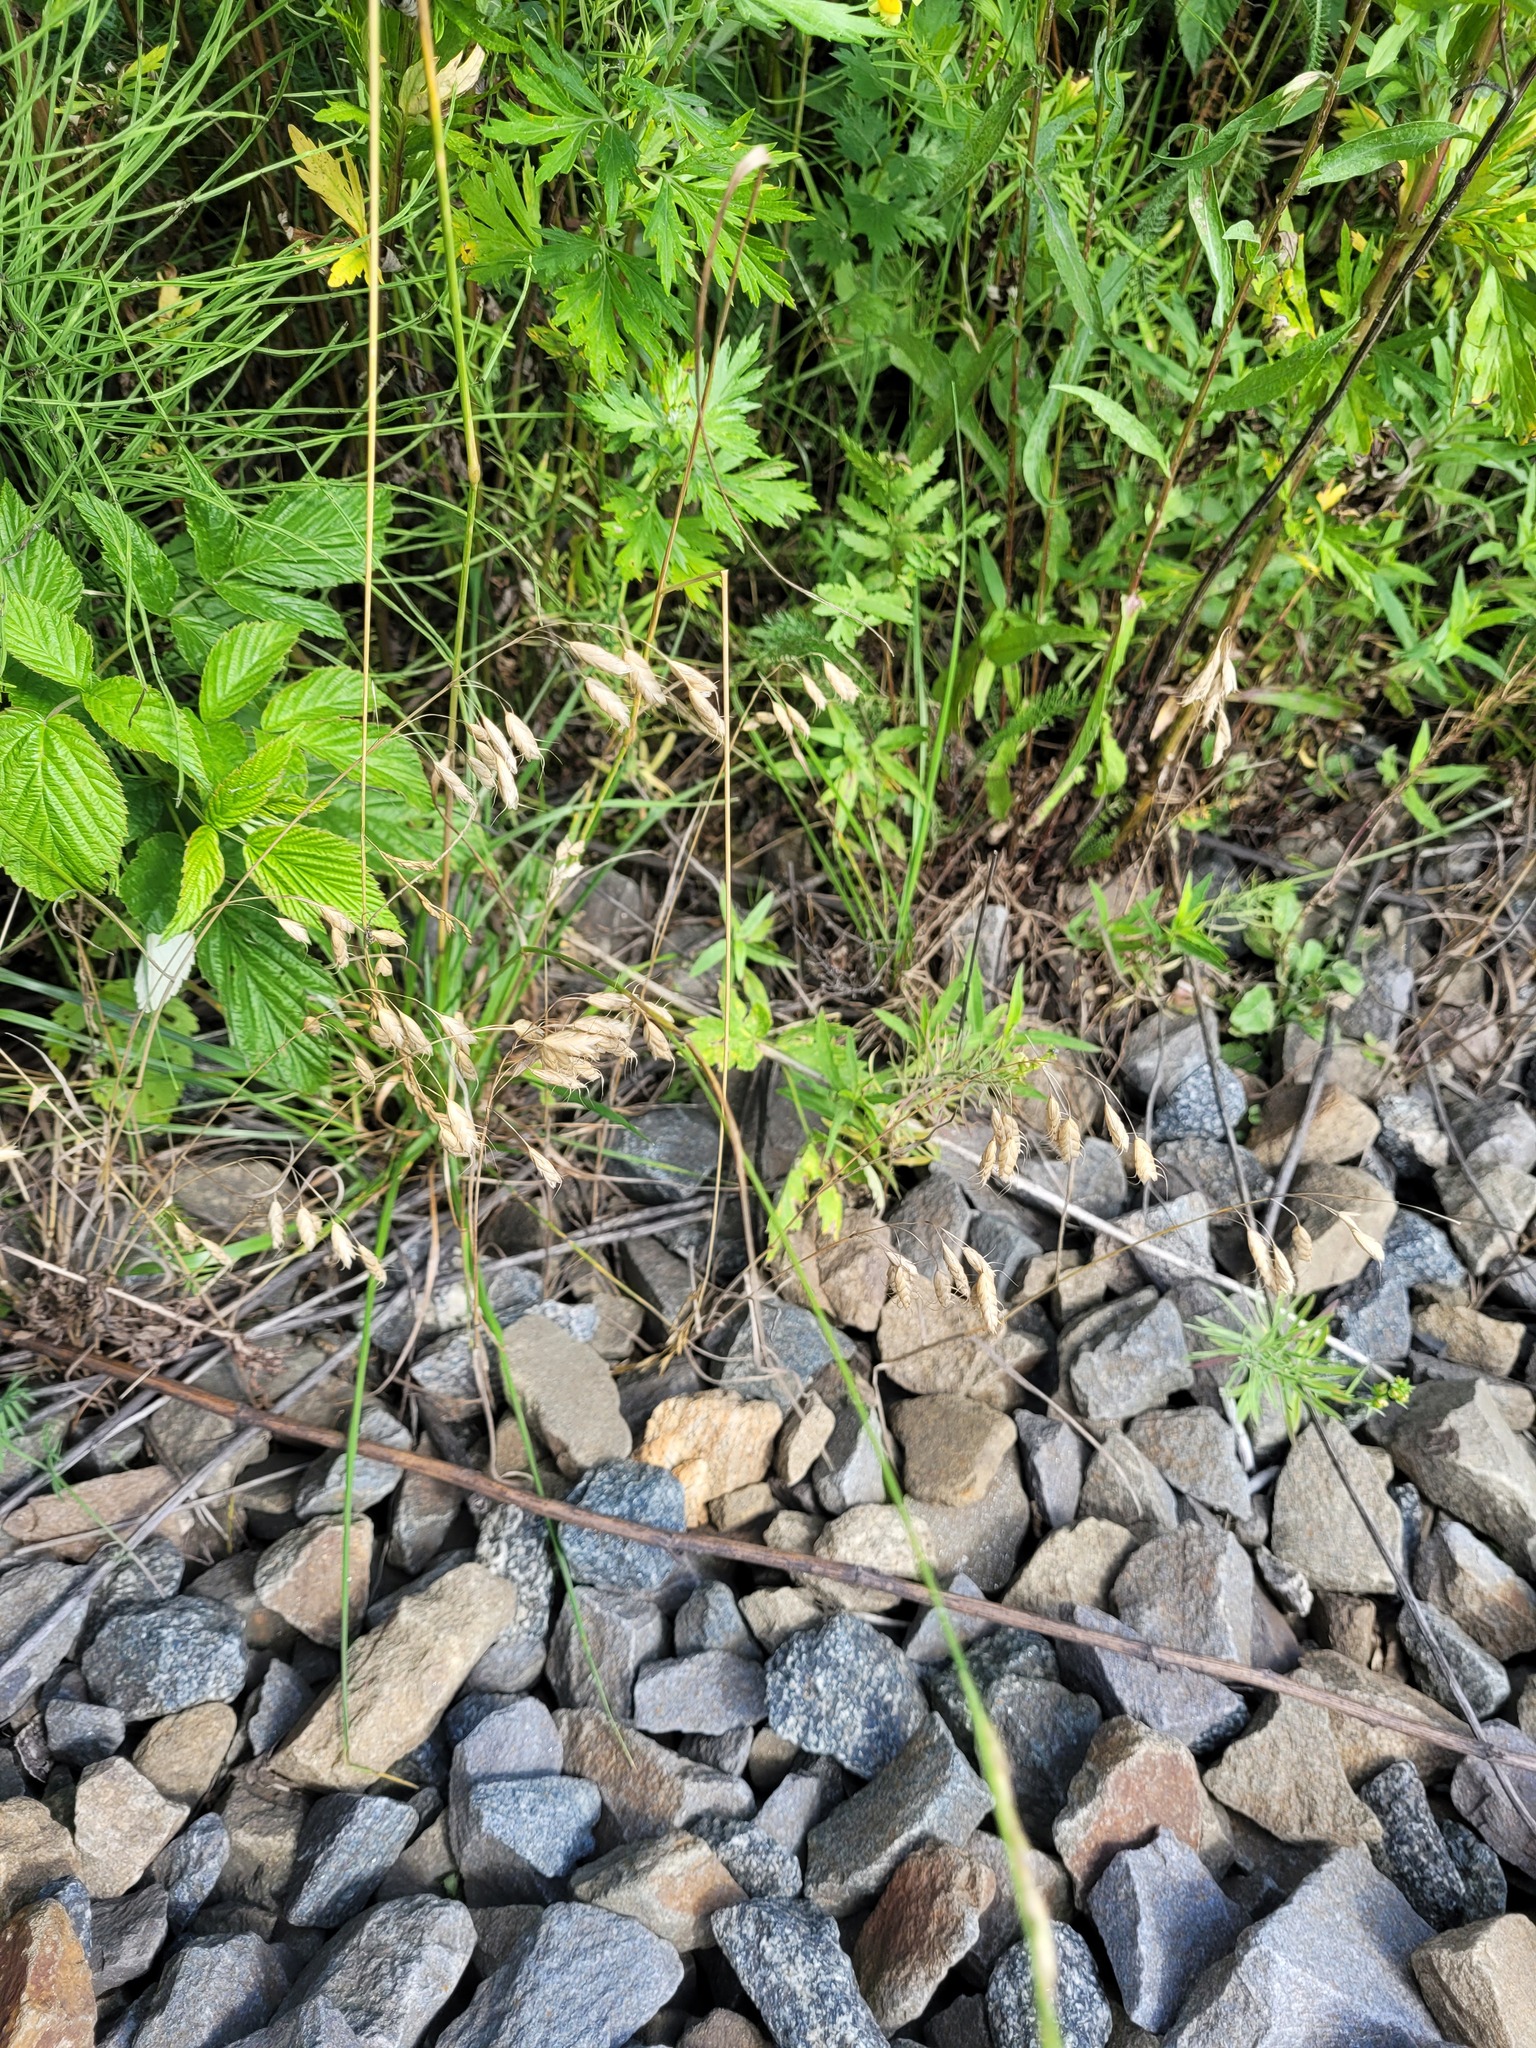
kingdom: Plantae
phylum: Tracheophyta
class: Liliopsida
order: Poales
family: Poaceae
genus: Bromus
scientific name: Bromus squarrosus
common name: Corn brome
